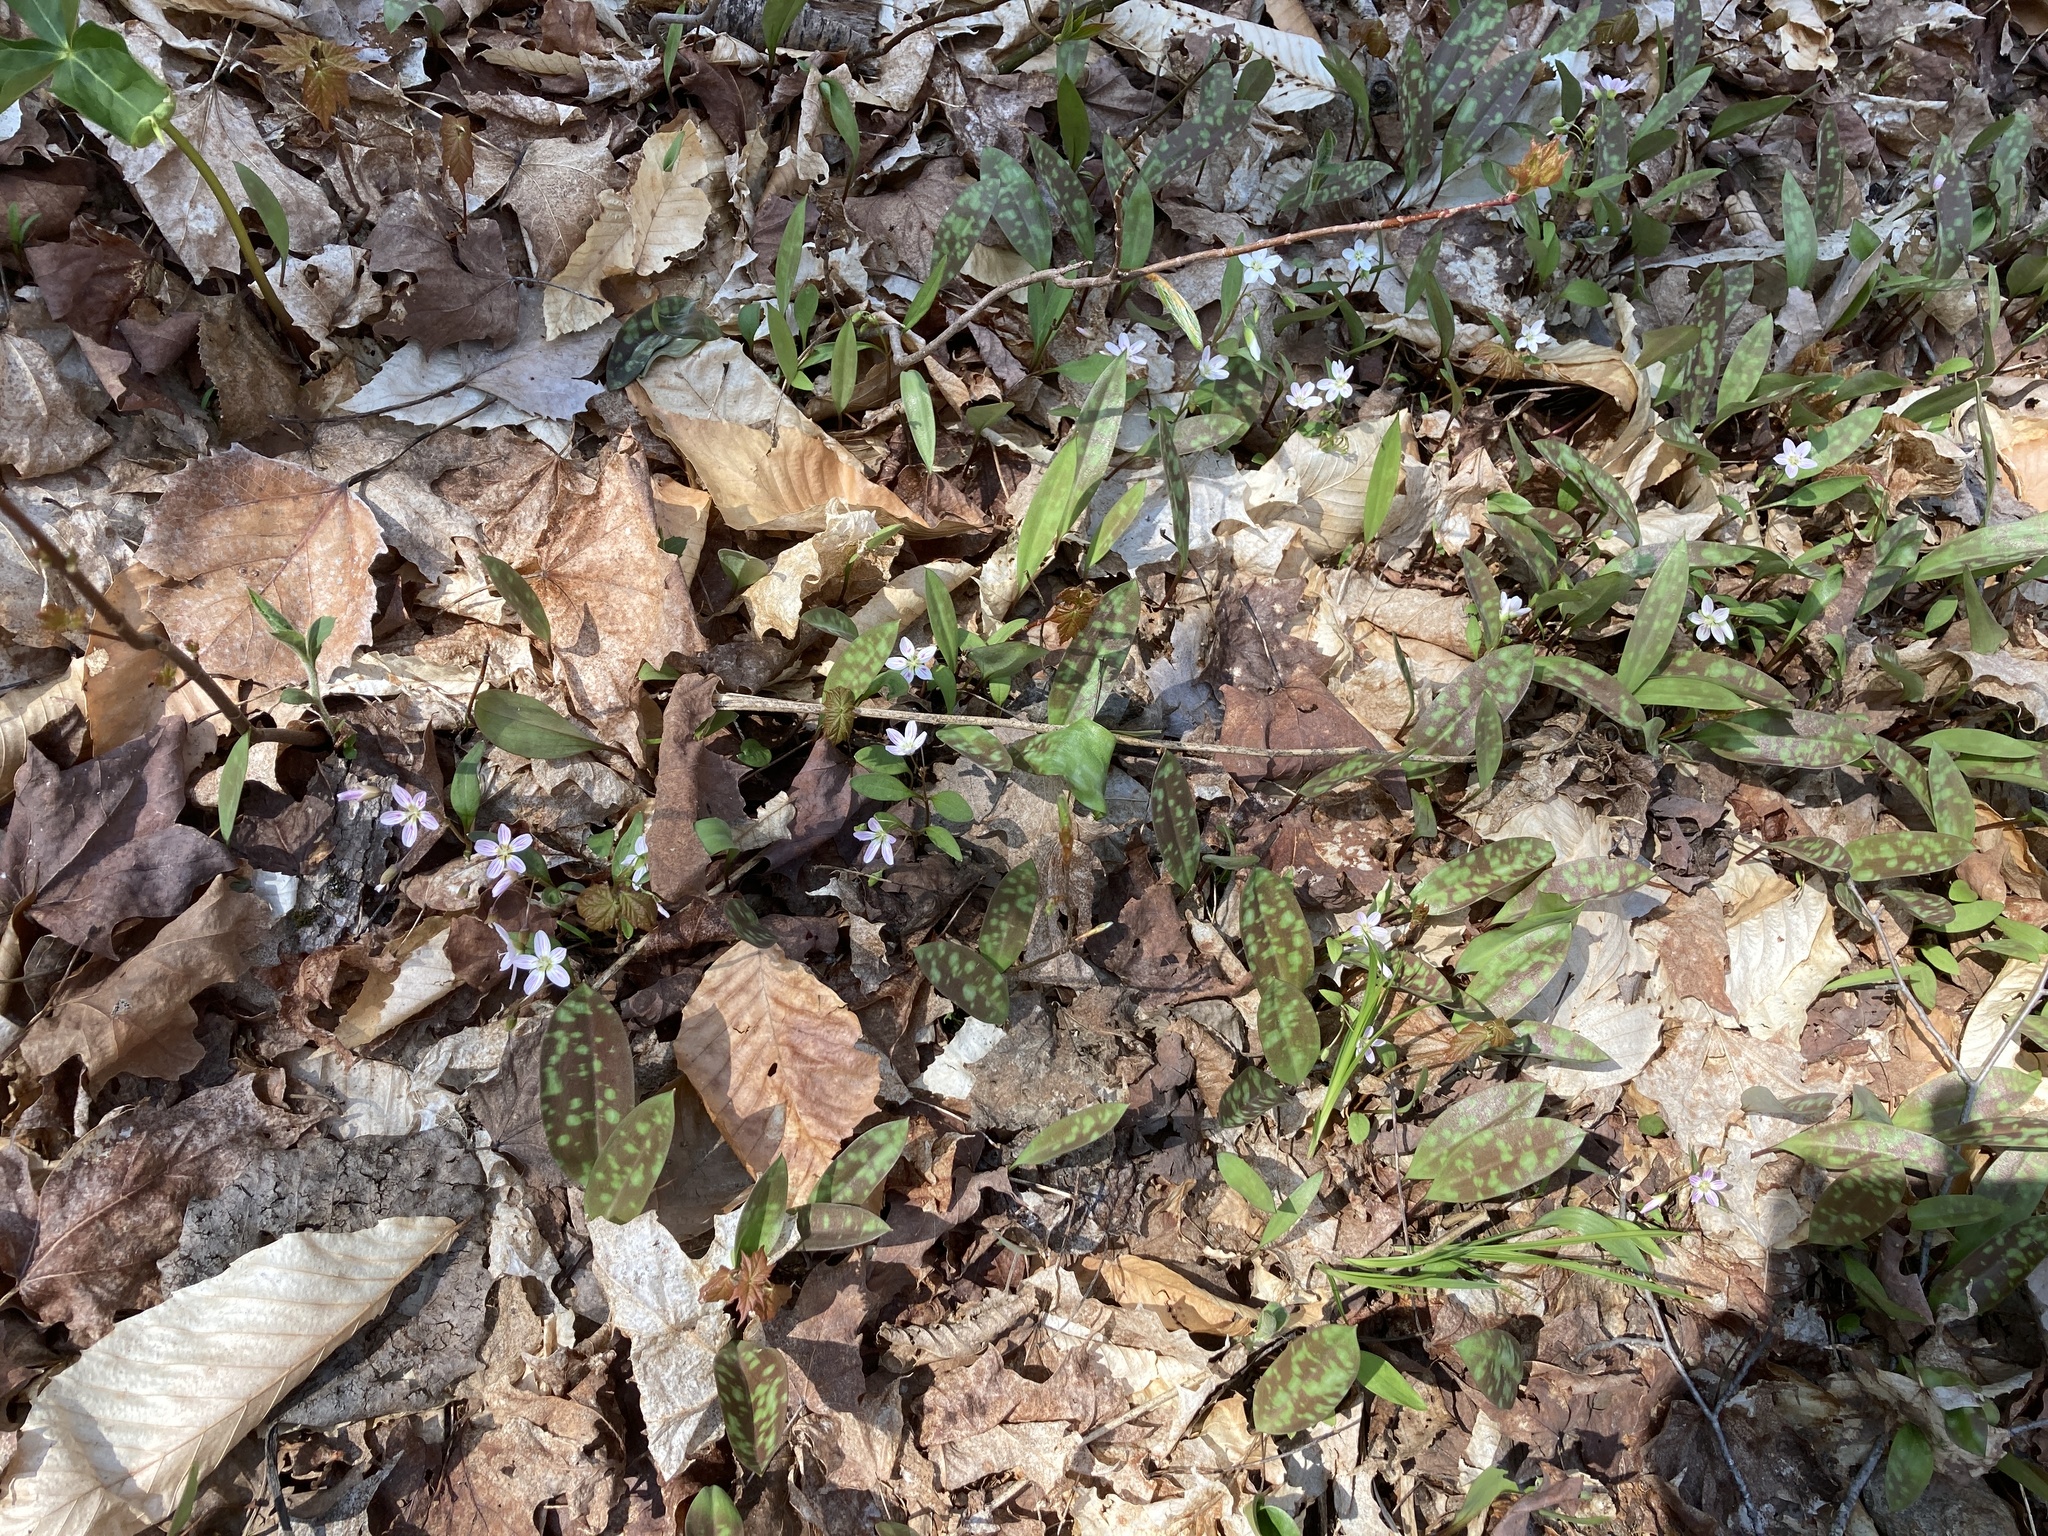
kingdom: Plantae
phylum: Tracheophyta
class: Magnoliopsida
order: Caryophyllales
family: Montiaceae
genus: Claytonia
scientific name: Claytonia caroliniana
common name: Carolina spring beauty
